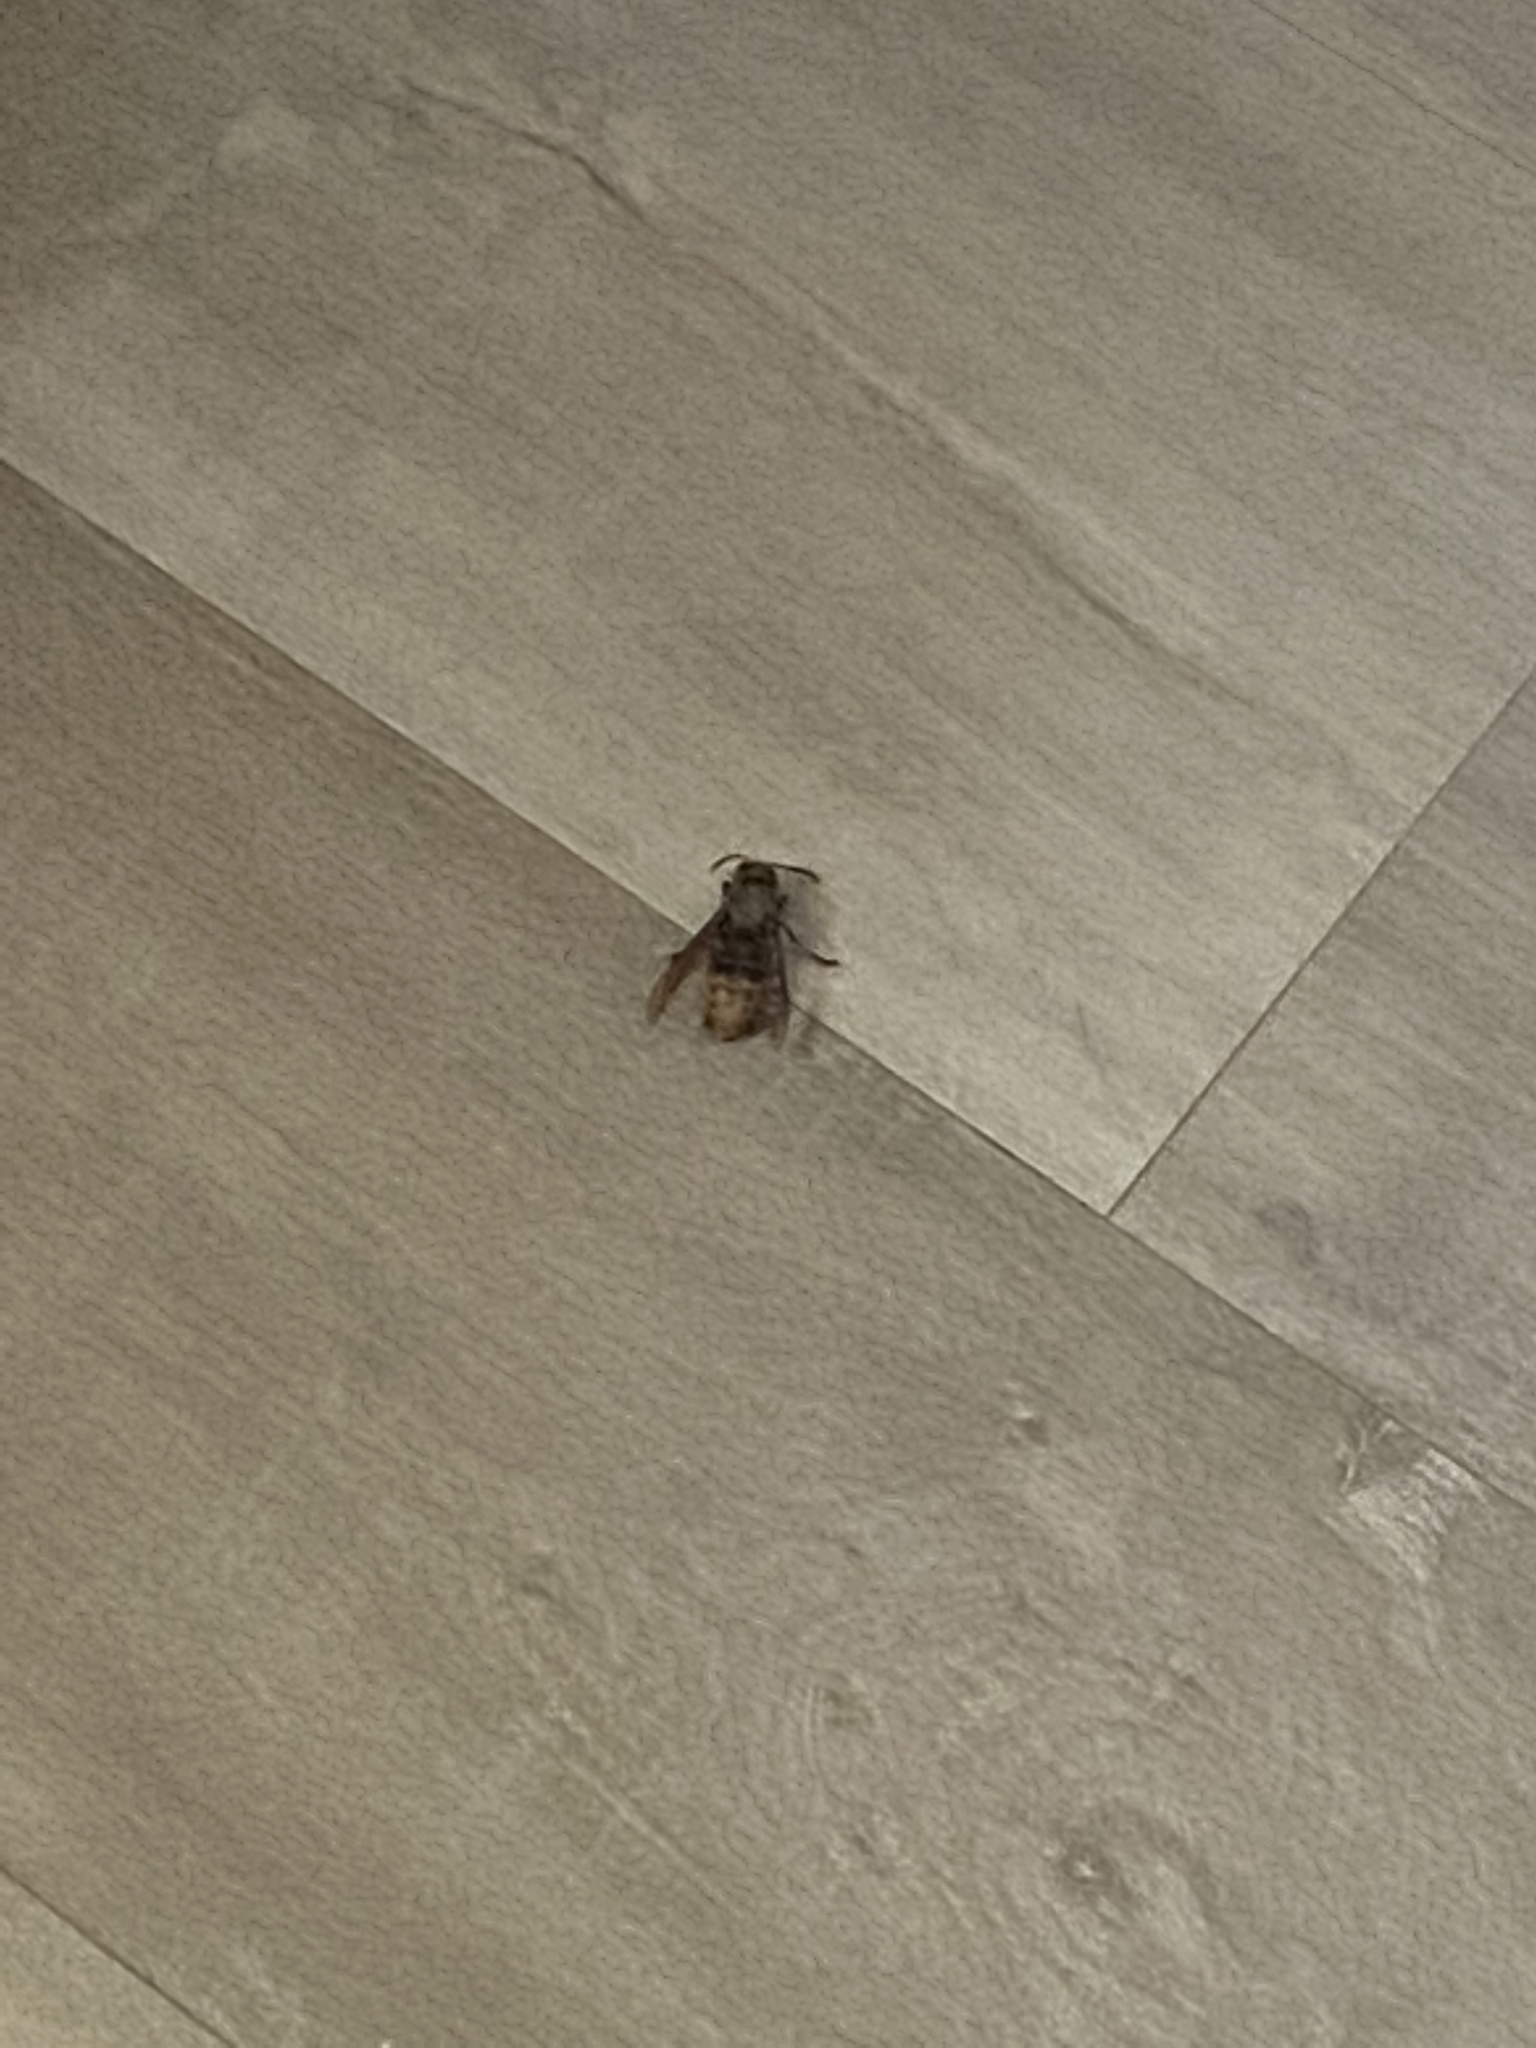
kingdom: Animalia
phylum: Arthropoda
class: Insecta
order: Hymenoptera
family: Vespidae
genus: Vespa
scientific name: Vespa crabro
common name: Hornet
